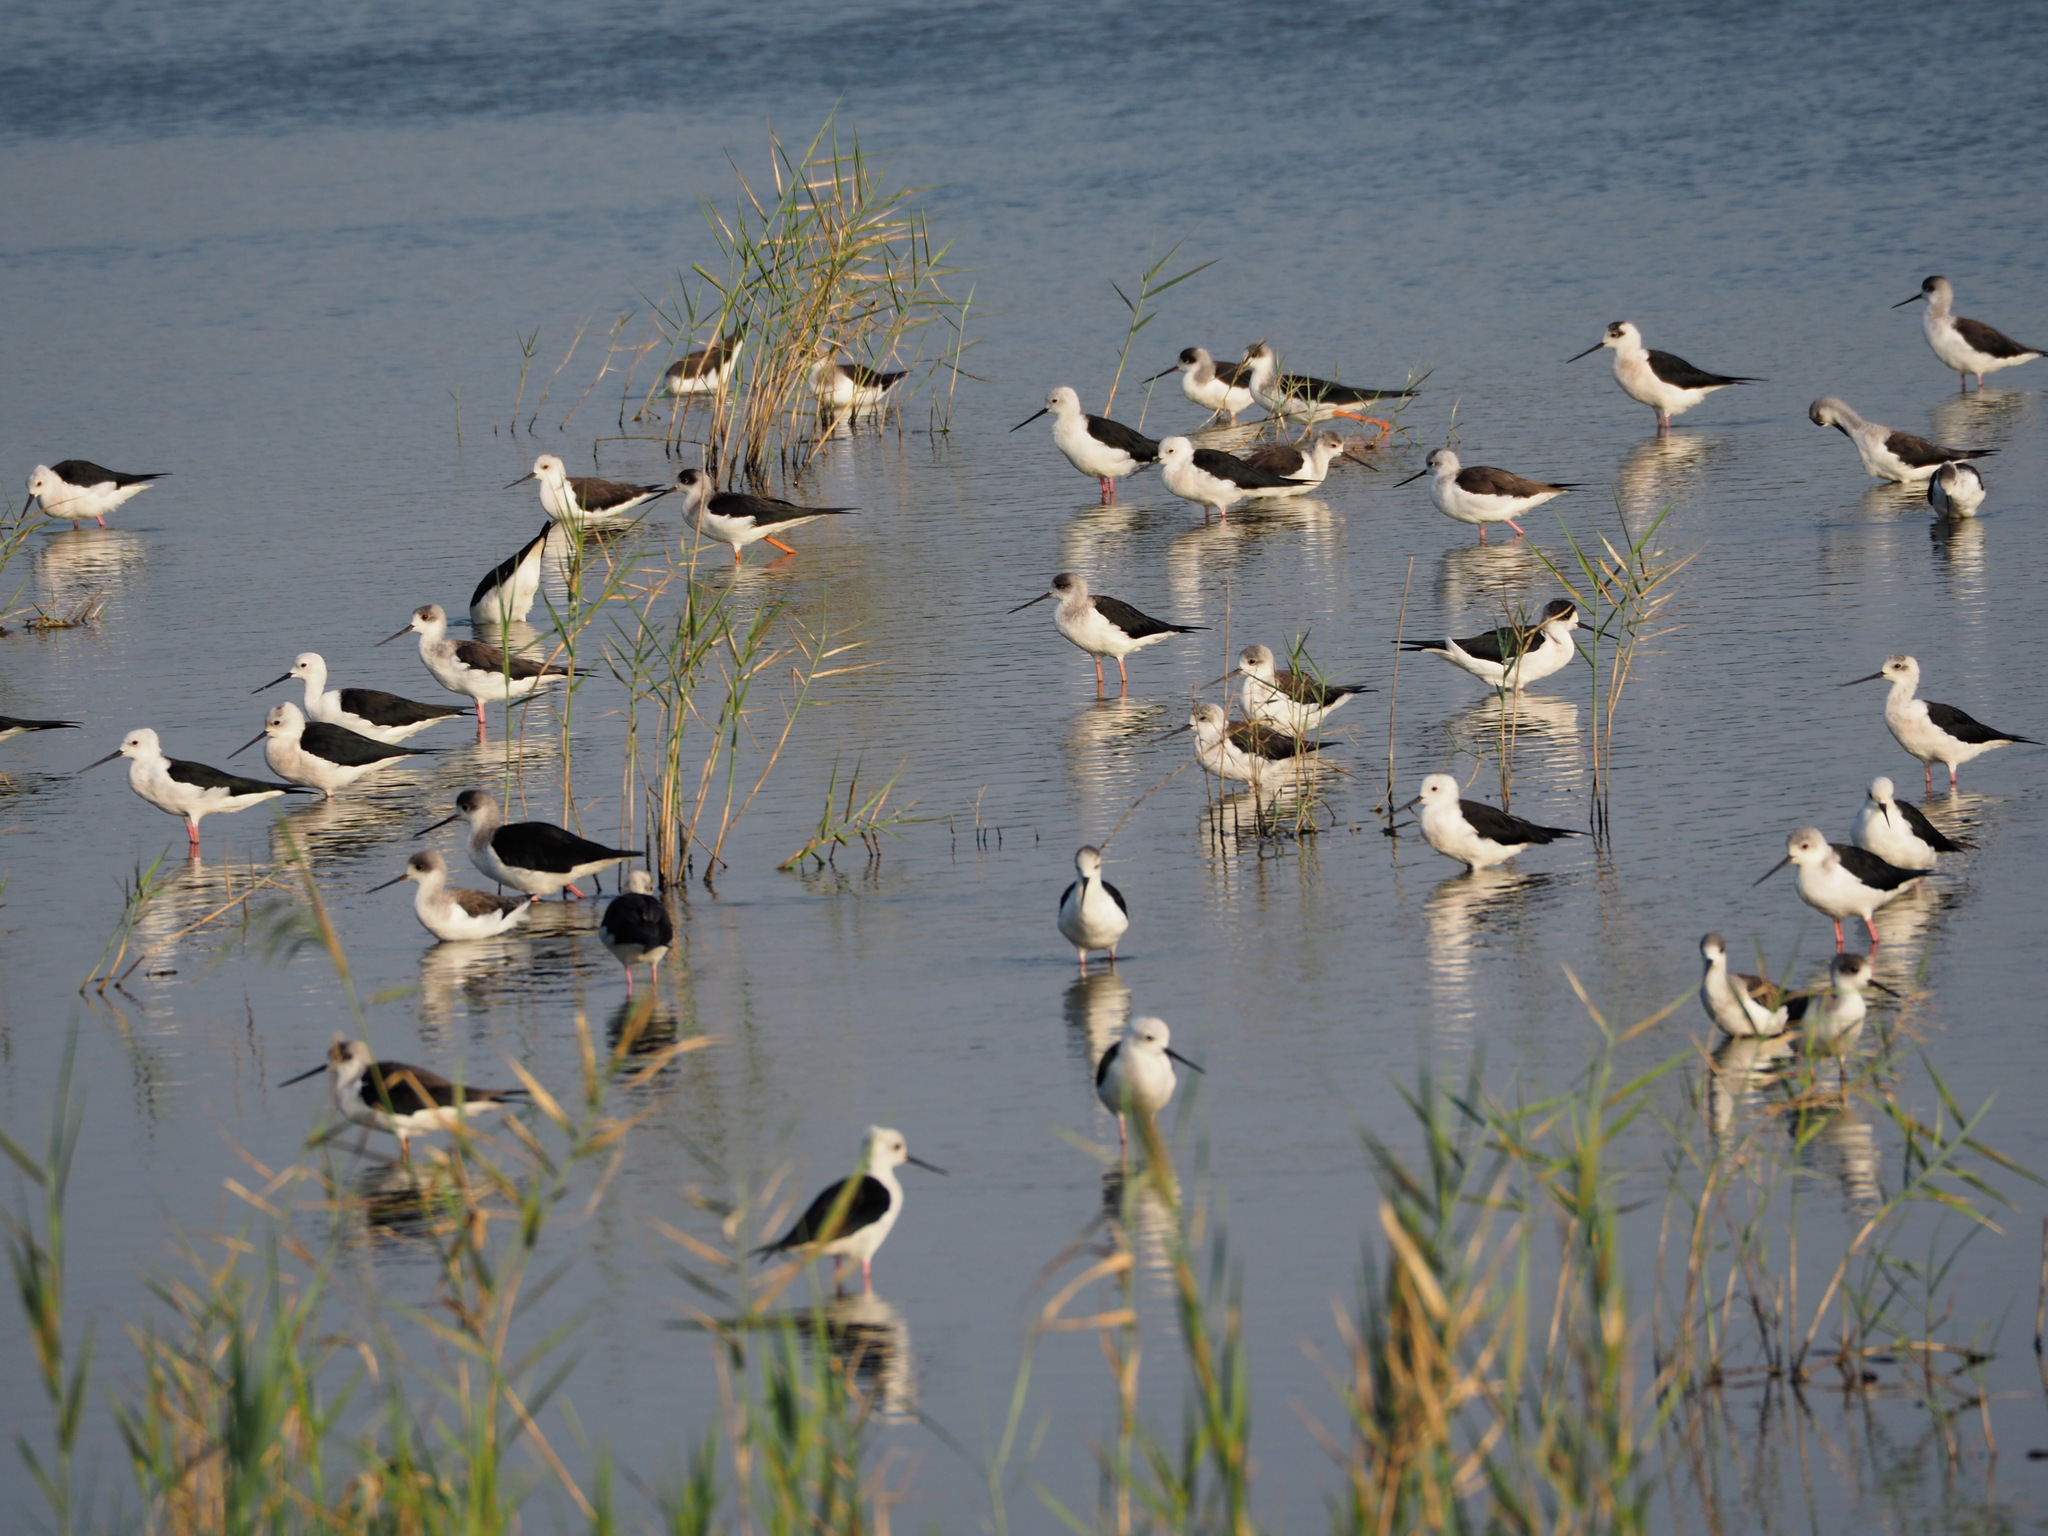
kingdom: Animalia
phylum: Chordata
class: Aves
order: Charadriiformes
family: Recurvirostridae
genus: Himantopus
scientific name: Himantopus himantopus
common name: Black-winged stilt
